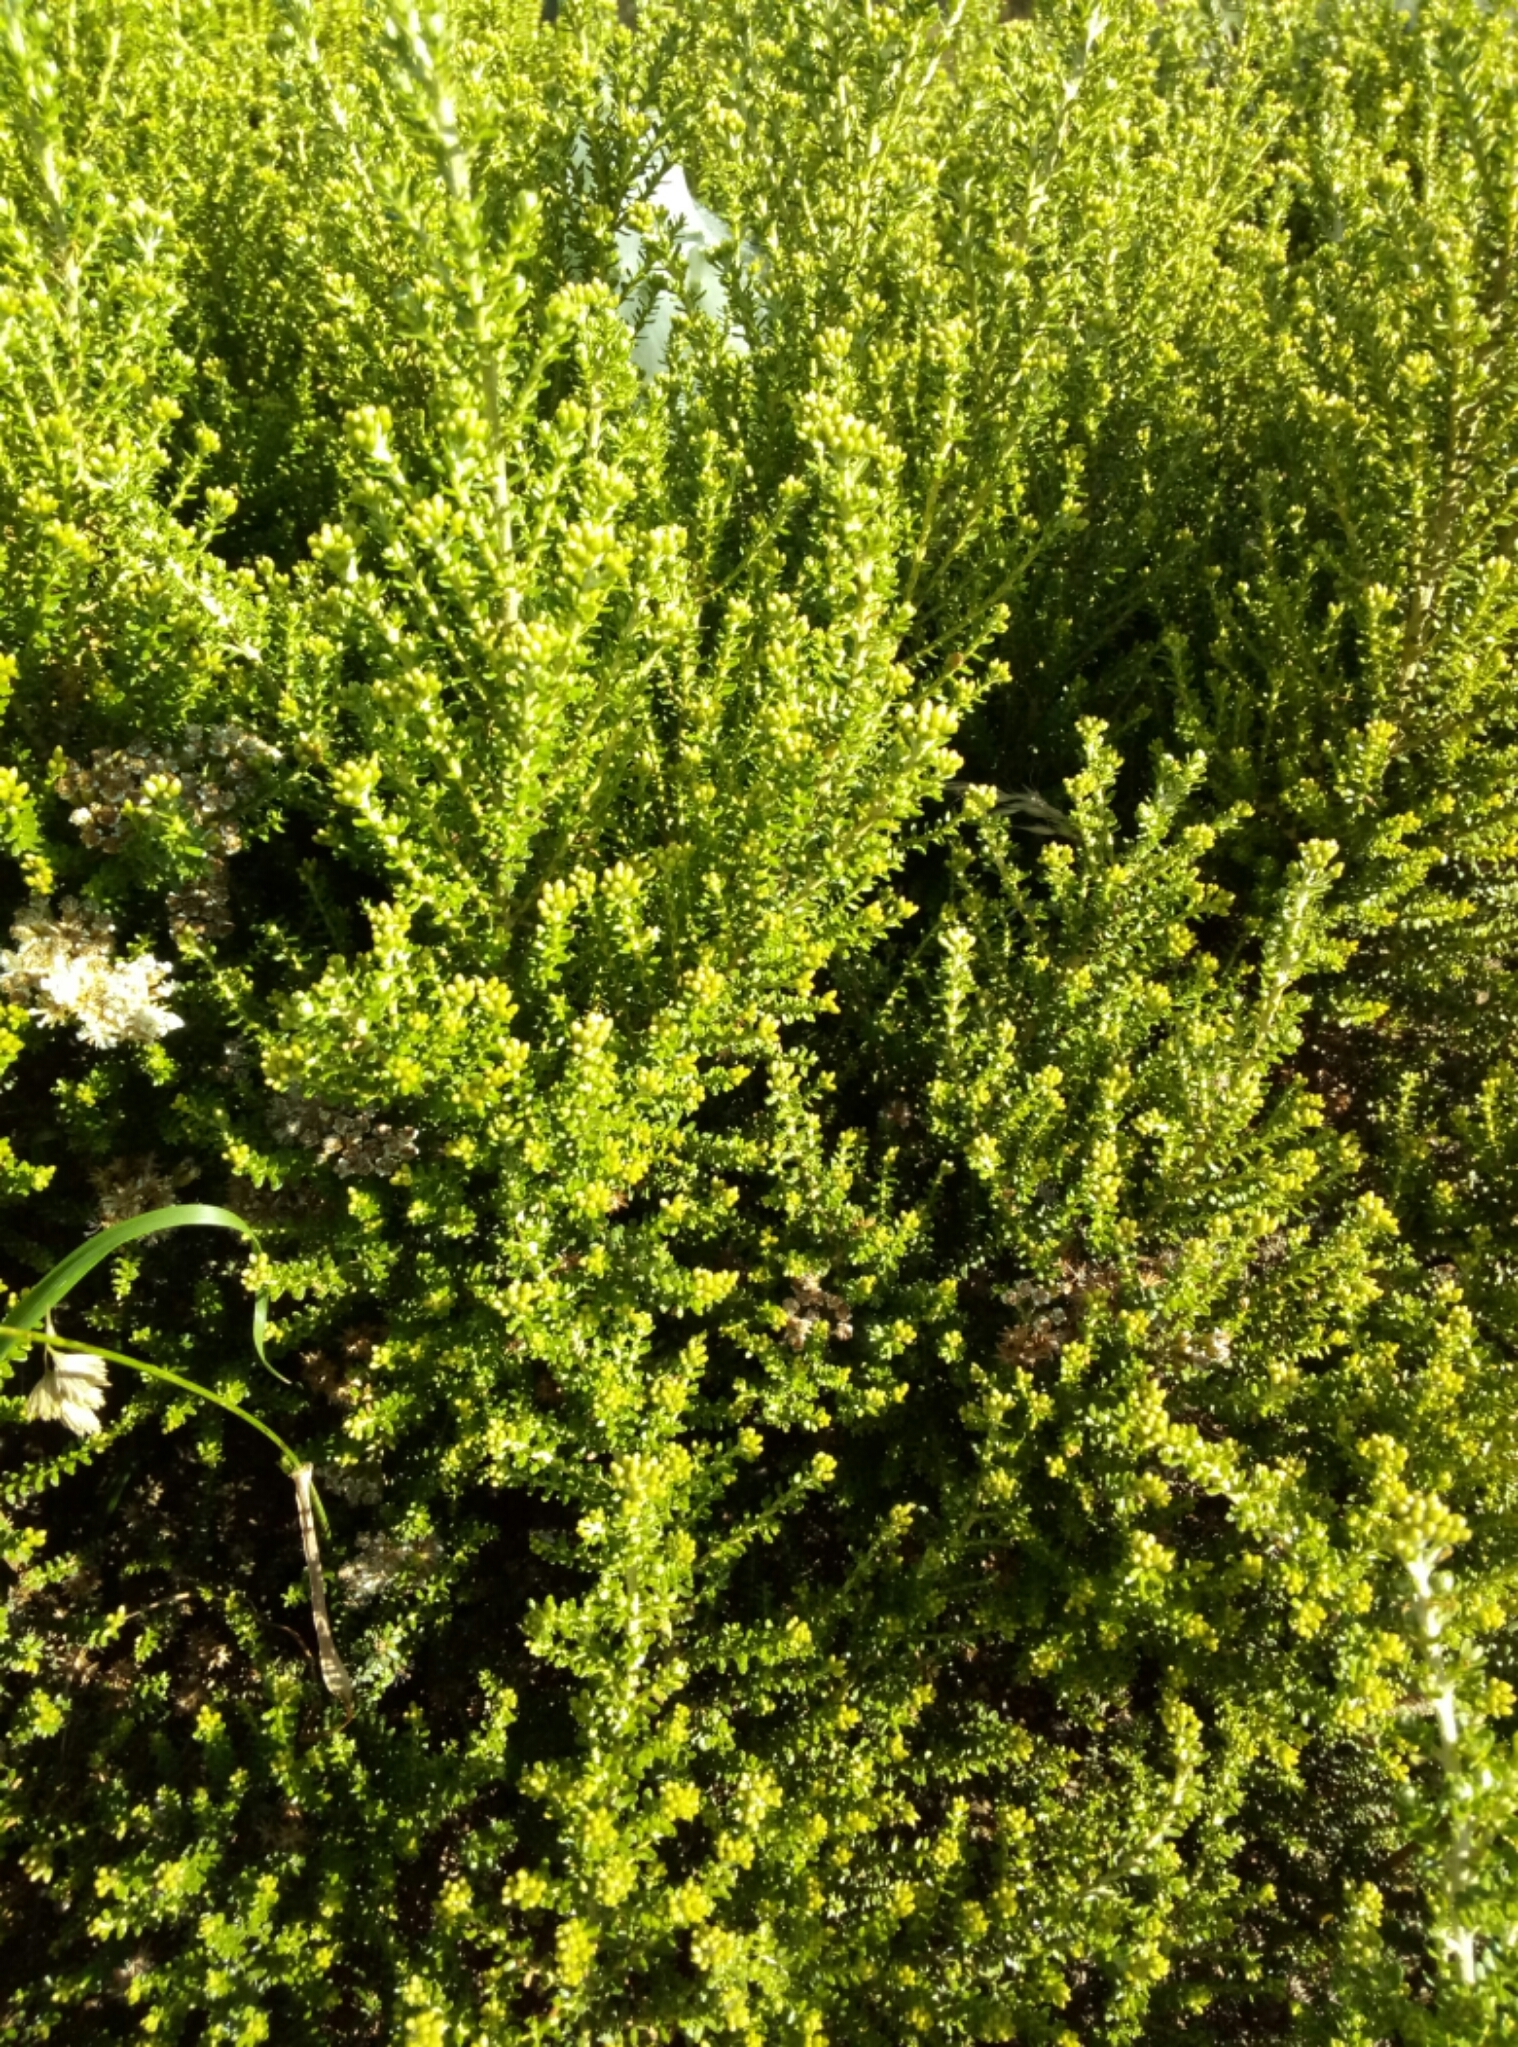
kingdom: Plantae
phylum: Tracheophyta
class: Magnoliopsida
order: Asterales
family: Asteraceae
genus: Olearia
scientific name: Olearia solandri
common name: Coastal daisybush
